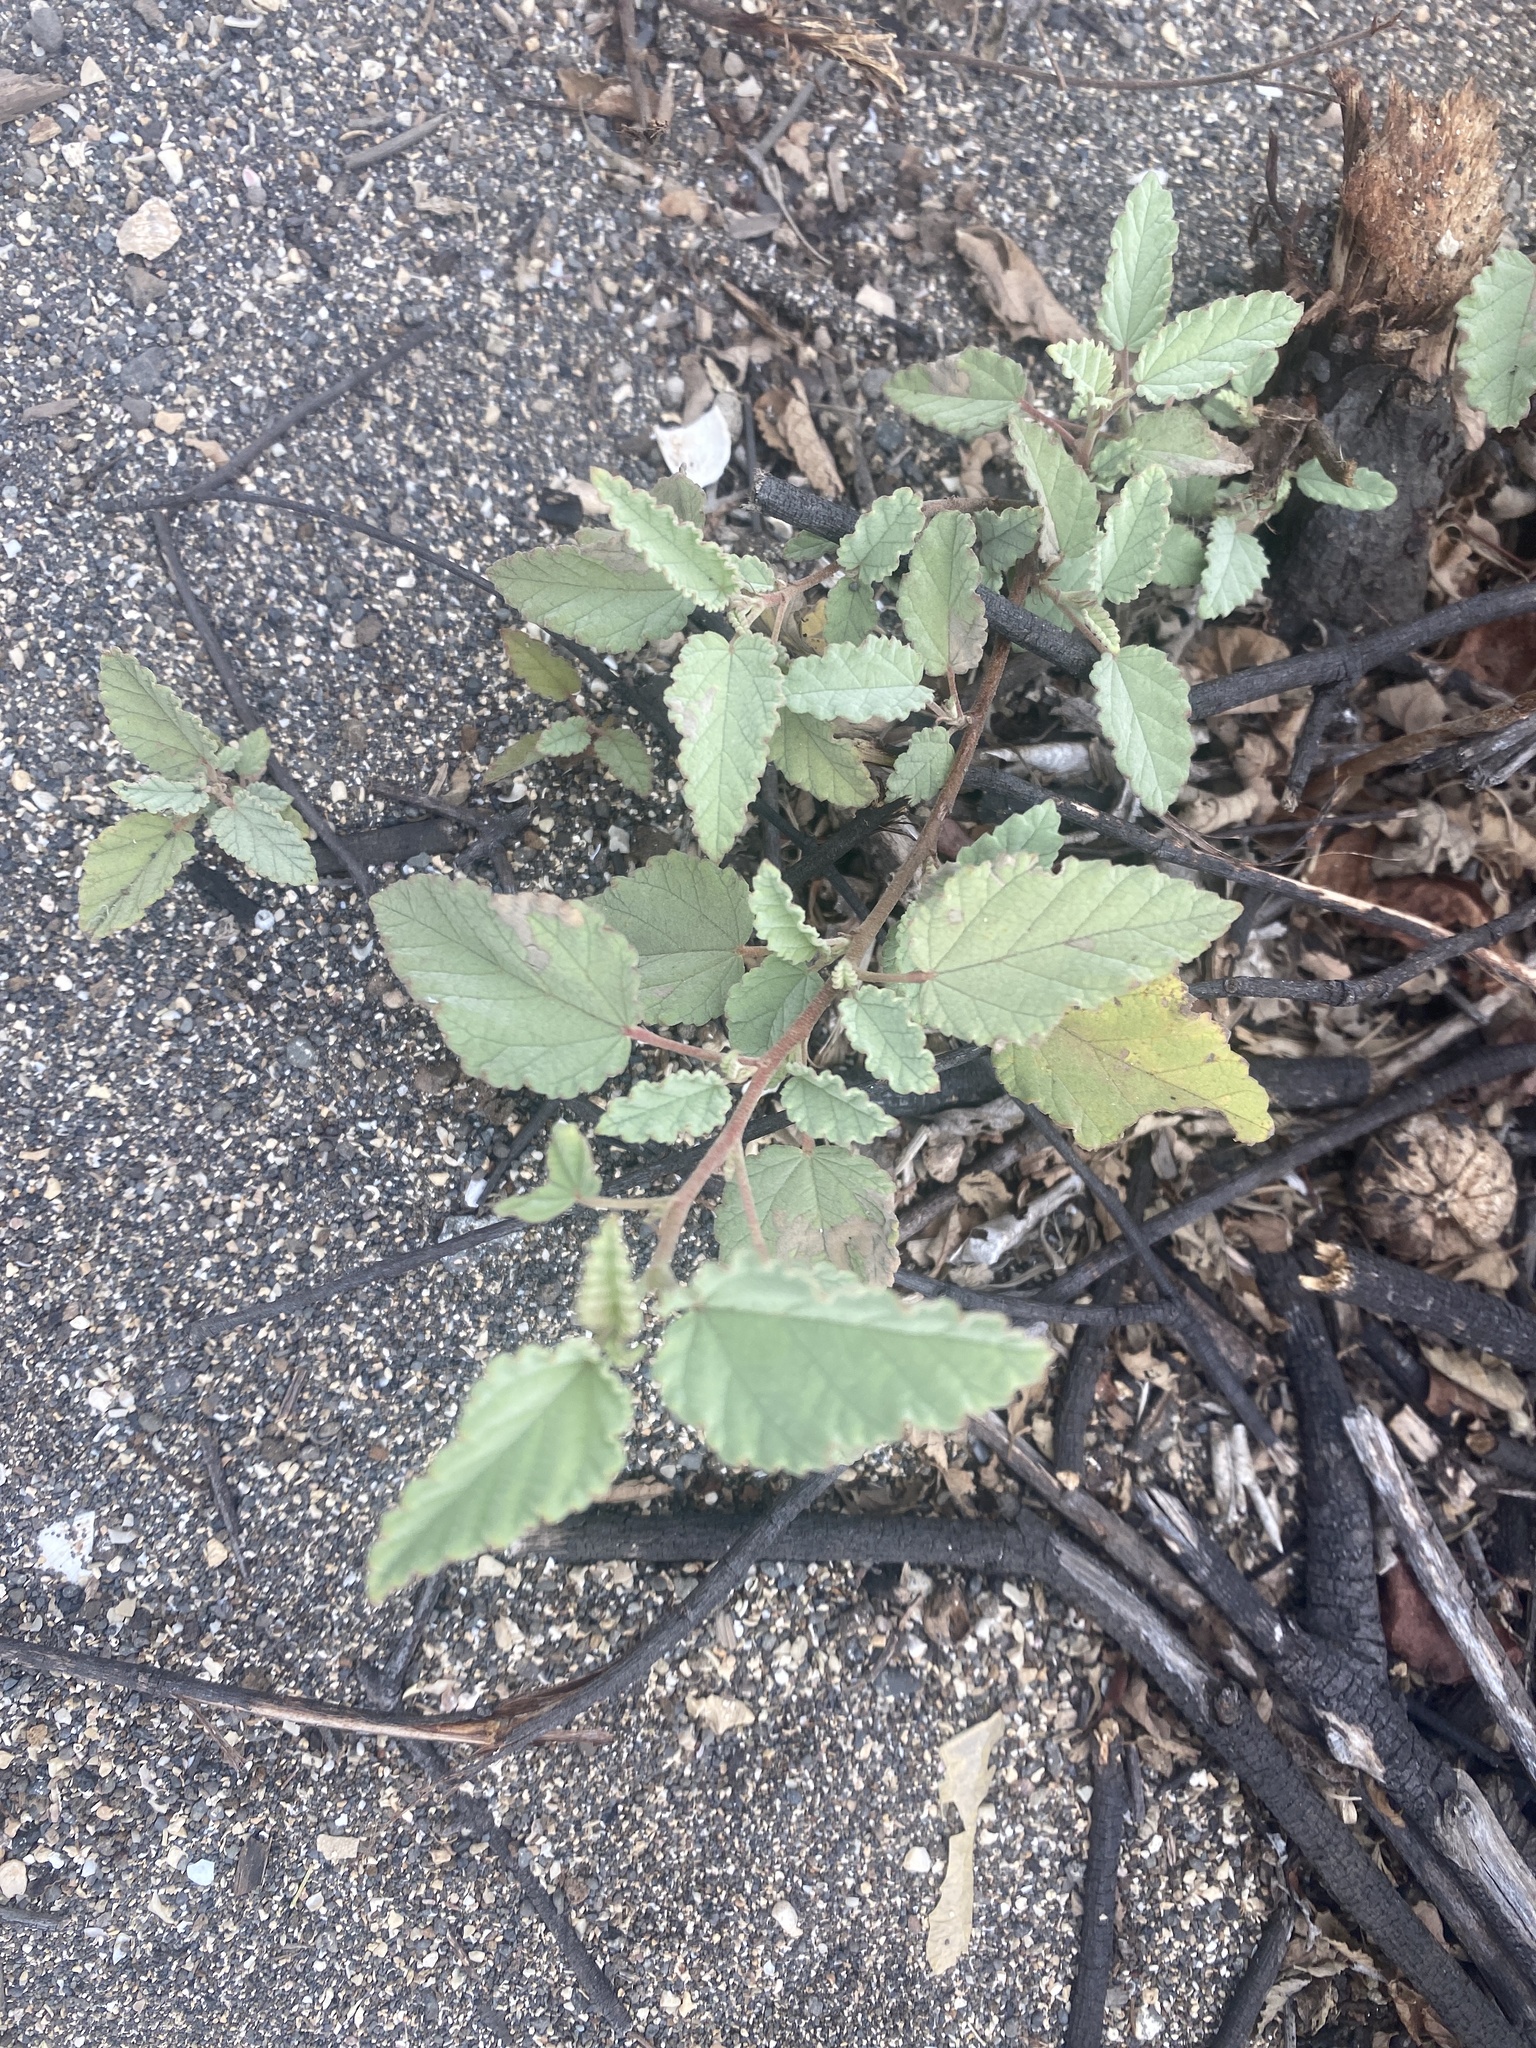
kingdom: Plantae
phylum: Tracheophyta
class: Magnoliopsida
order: Malvales
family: Malvaceae
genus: Waltheria
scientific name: Waltheria ovata
